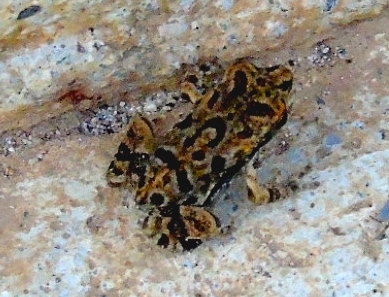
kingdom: Animalia
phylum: Chordata
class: Amphibia
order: Anura
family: Bufonidae
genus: Incilius
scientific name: Incilius mazatlanensis
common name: Sinaloa toad
